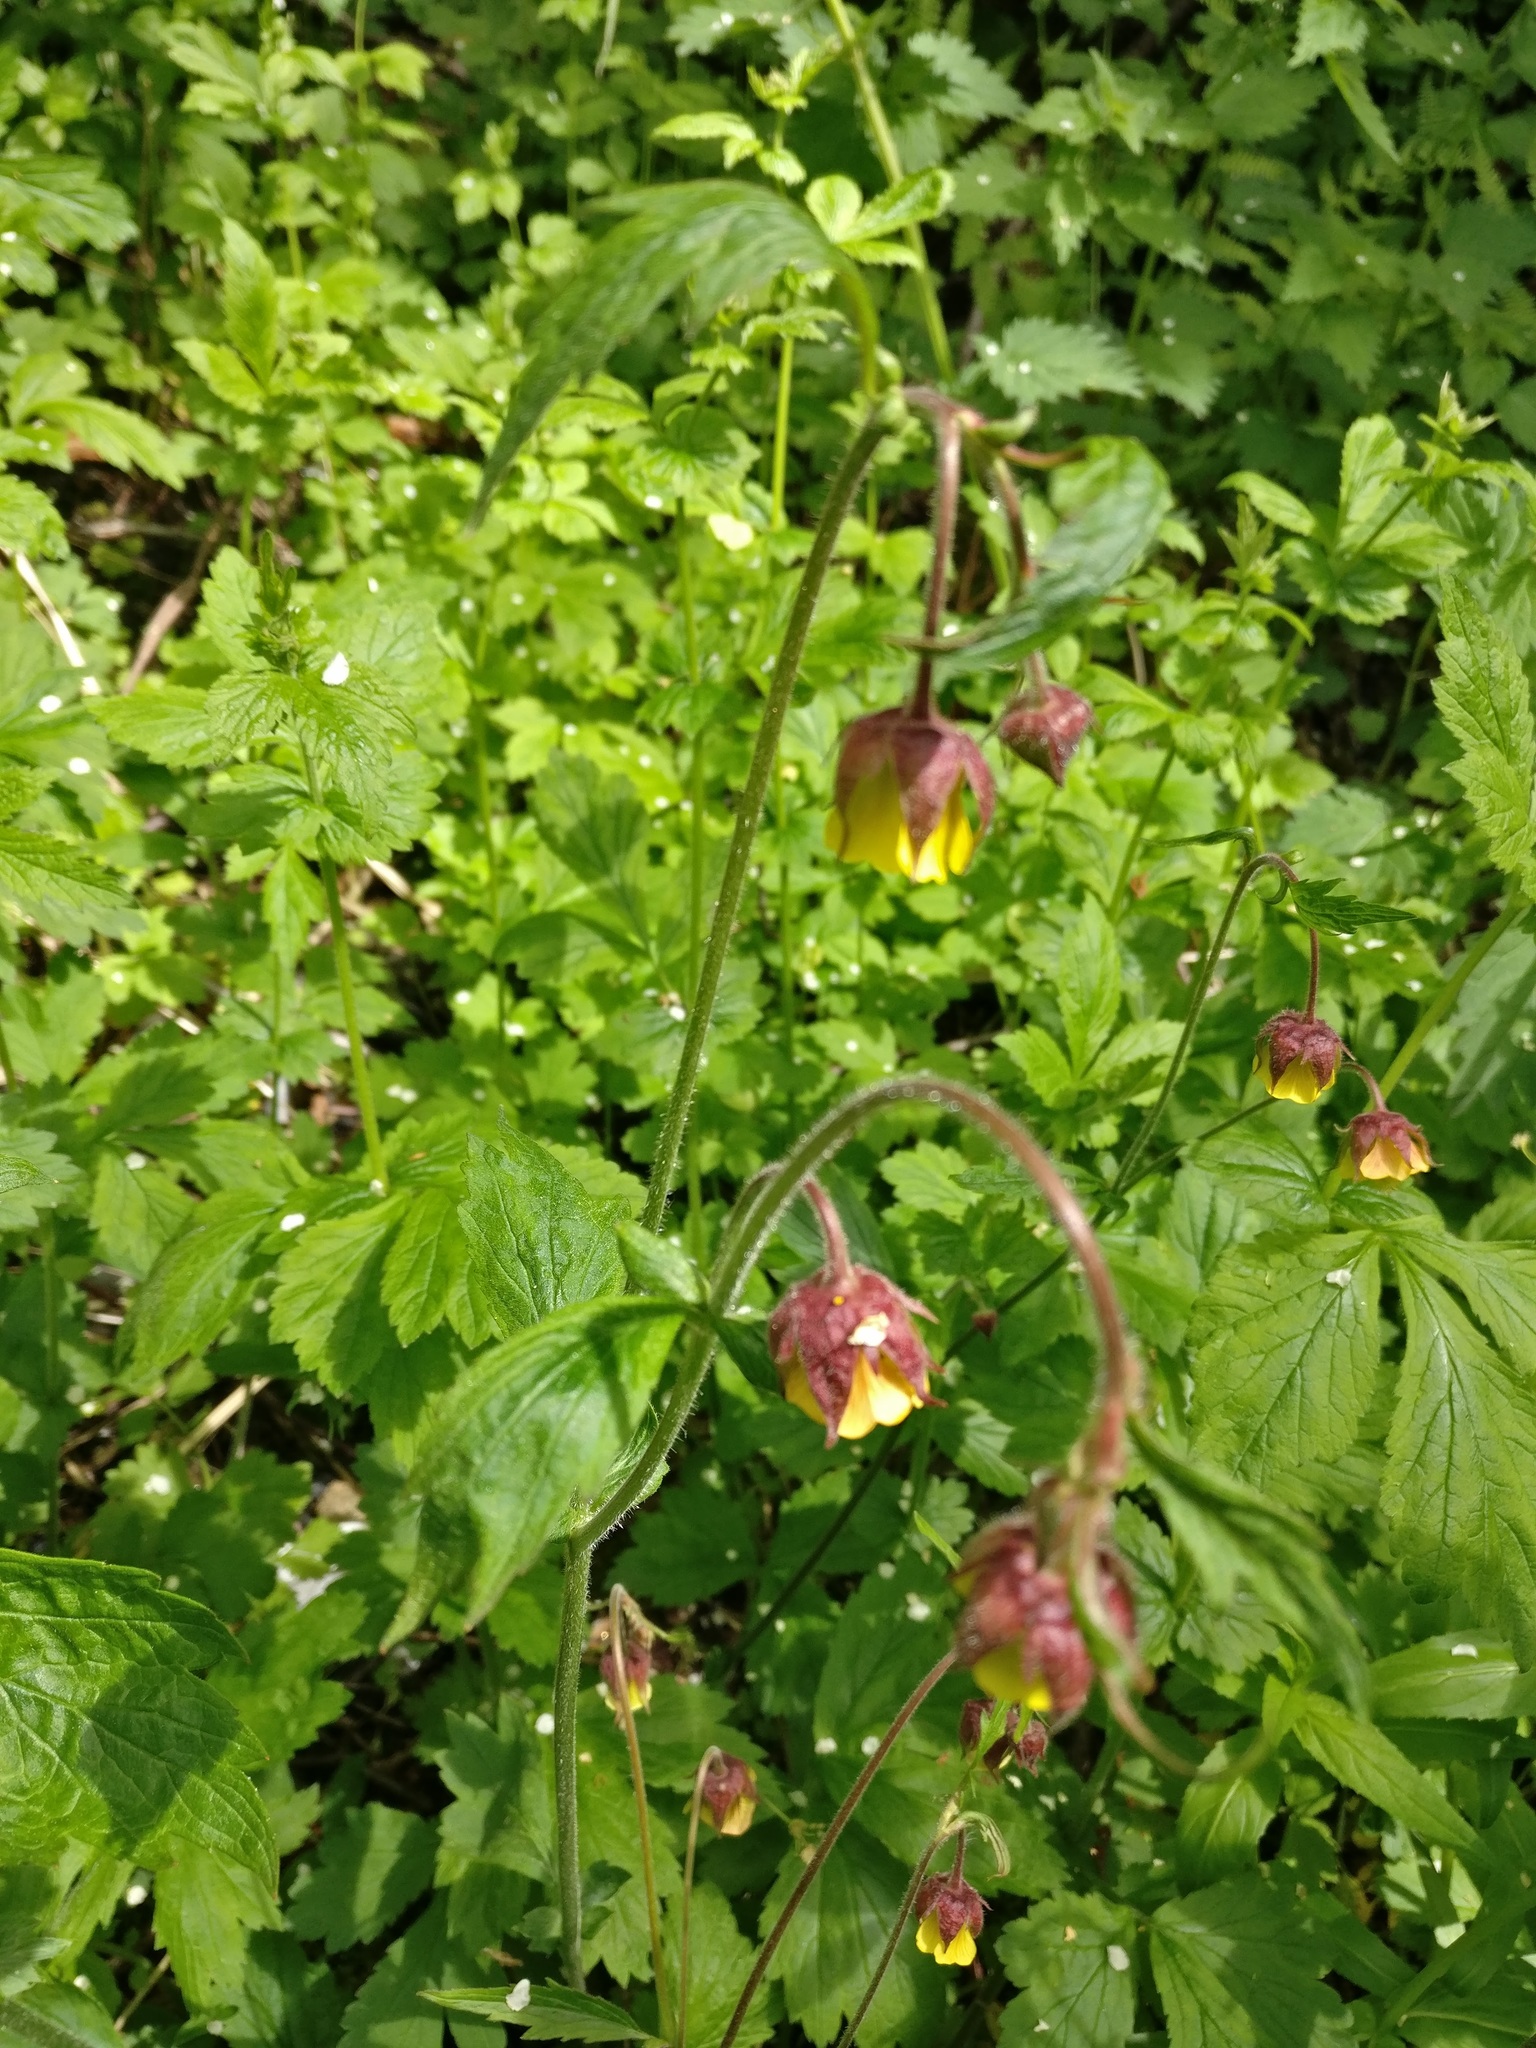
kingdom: Plantae
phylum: Tracheophyta
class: Magnoliopsida
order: Rosales
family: Rosaceae
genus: Geum
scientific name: Geum intermedium
